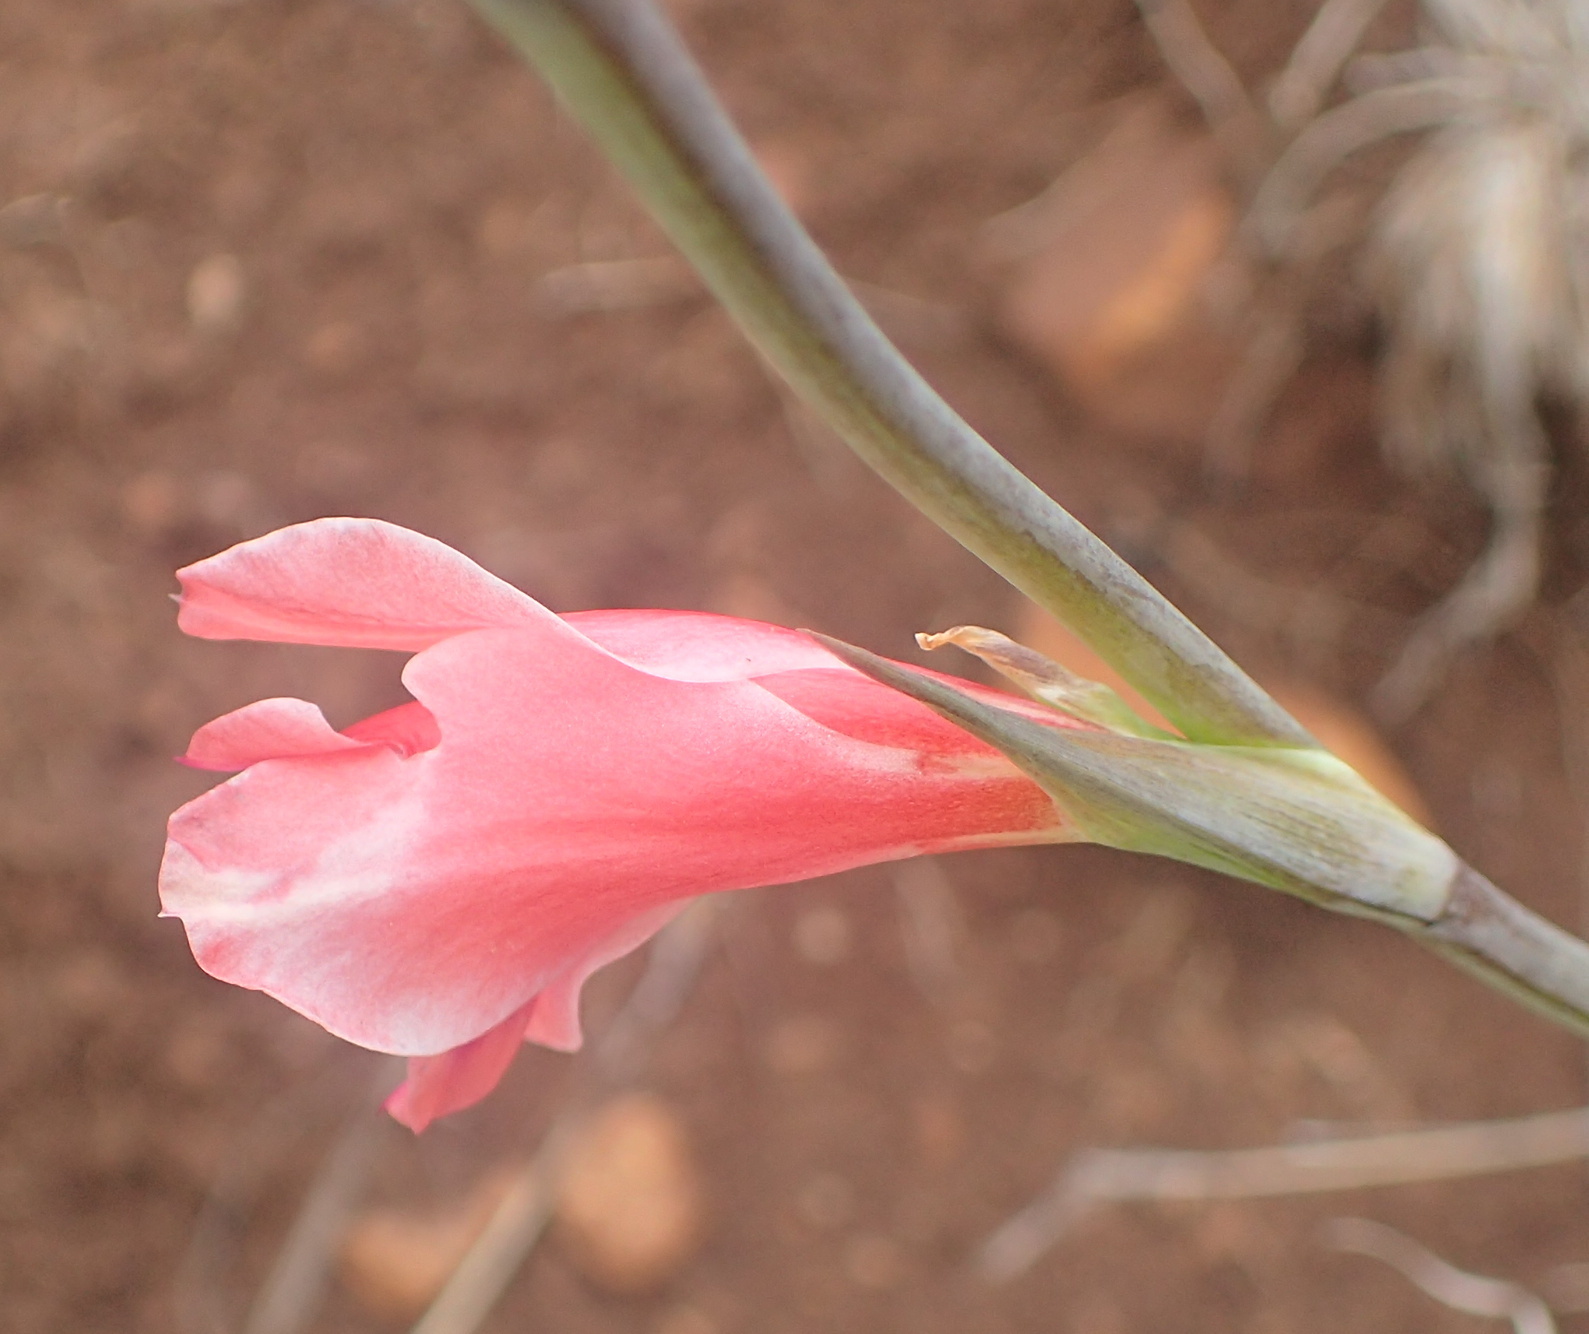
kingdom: Plantae
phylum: Tracheophyta
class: Liliopsida
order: Asparagales
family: Iridaceae
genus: Gladiolus
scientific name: Gladiolus crassifolius
